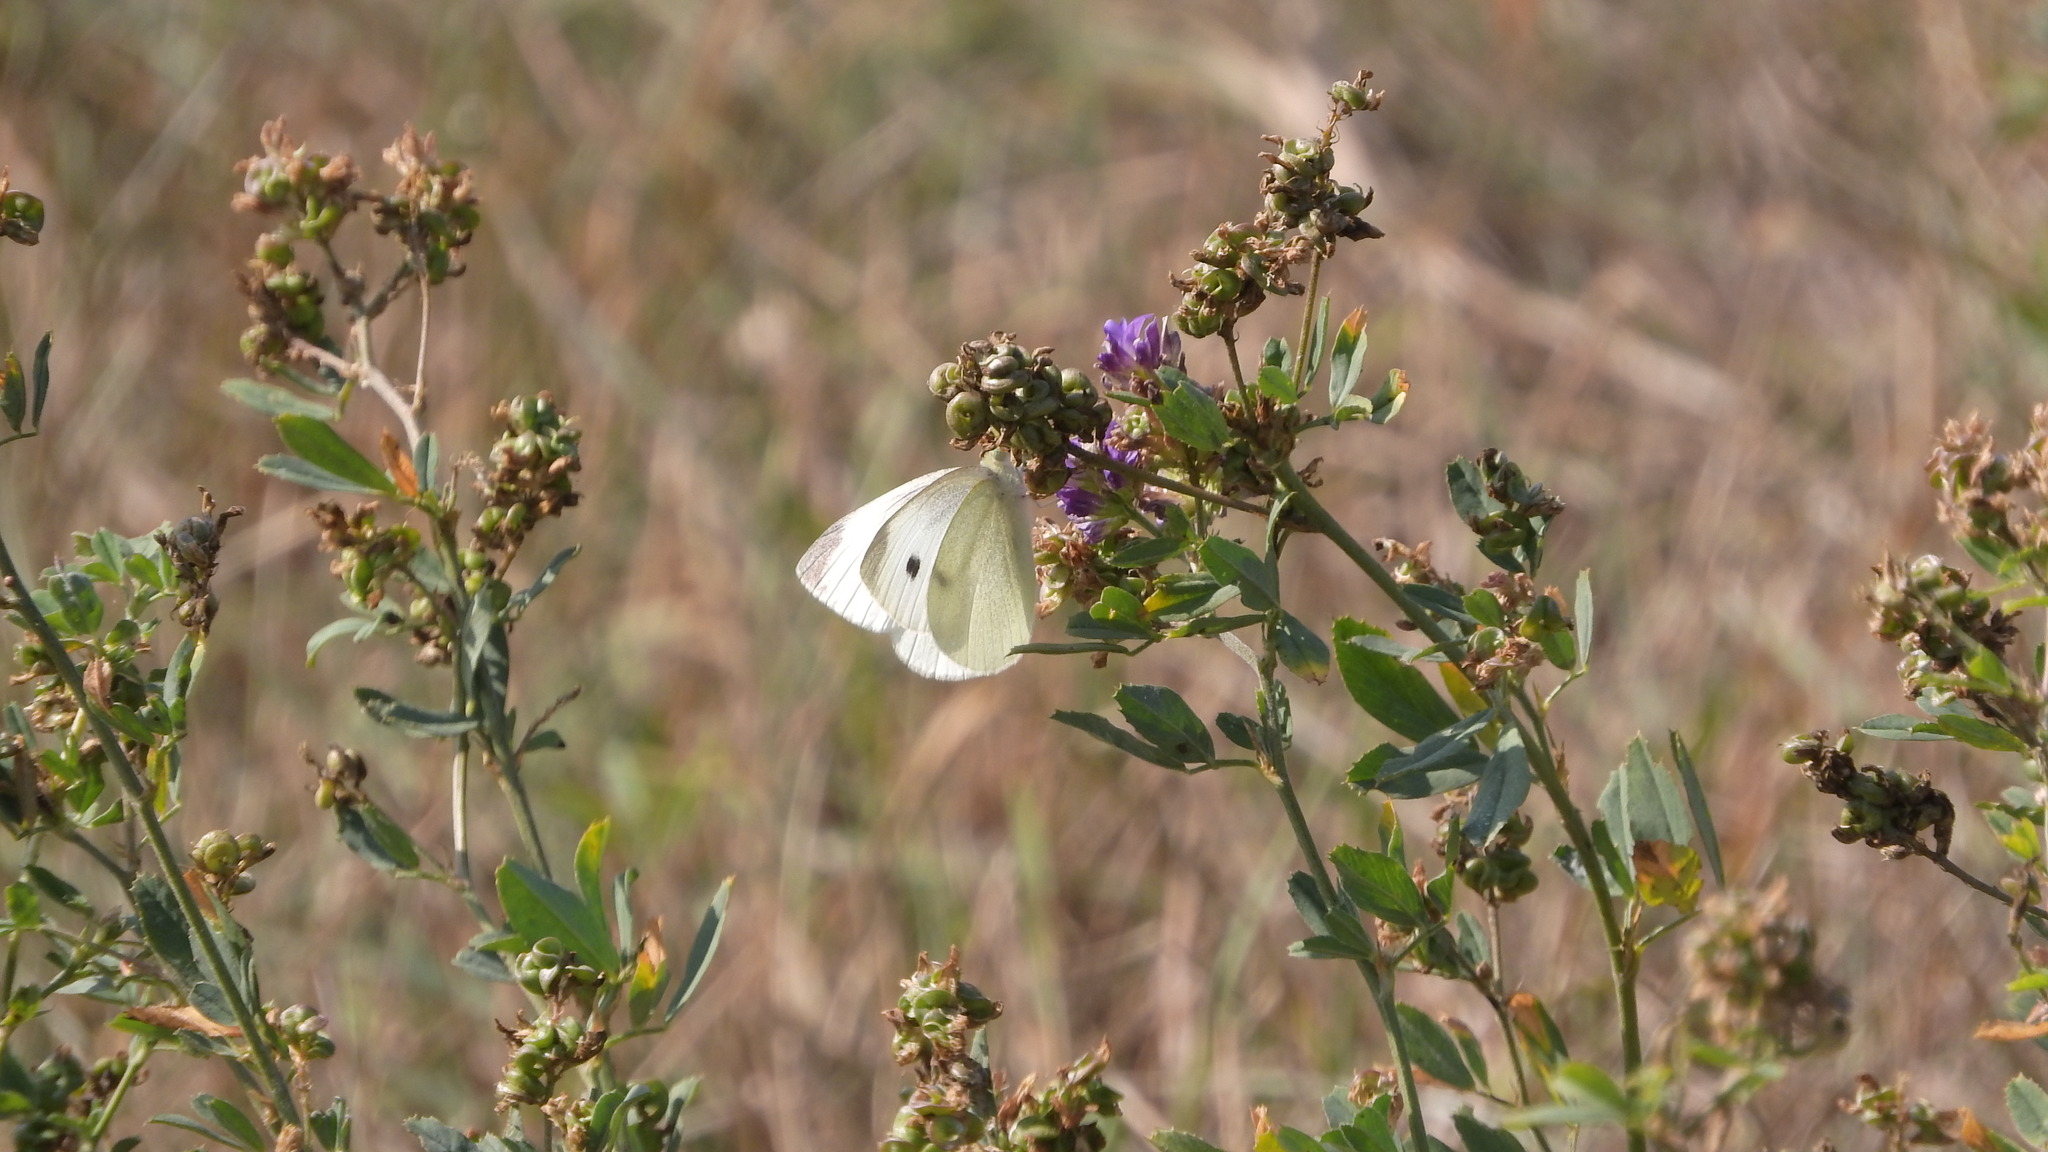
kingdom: Animalia
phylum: Arthropoda
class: Insecta
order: Lepidoptera
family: Pieridae
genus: Pieris
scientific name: Pieris rapae
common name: Small white
